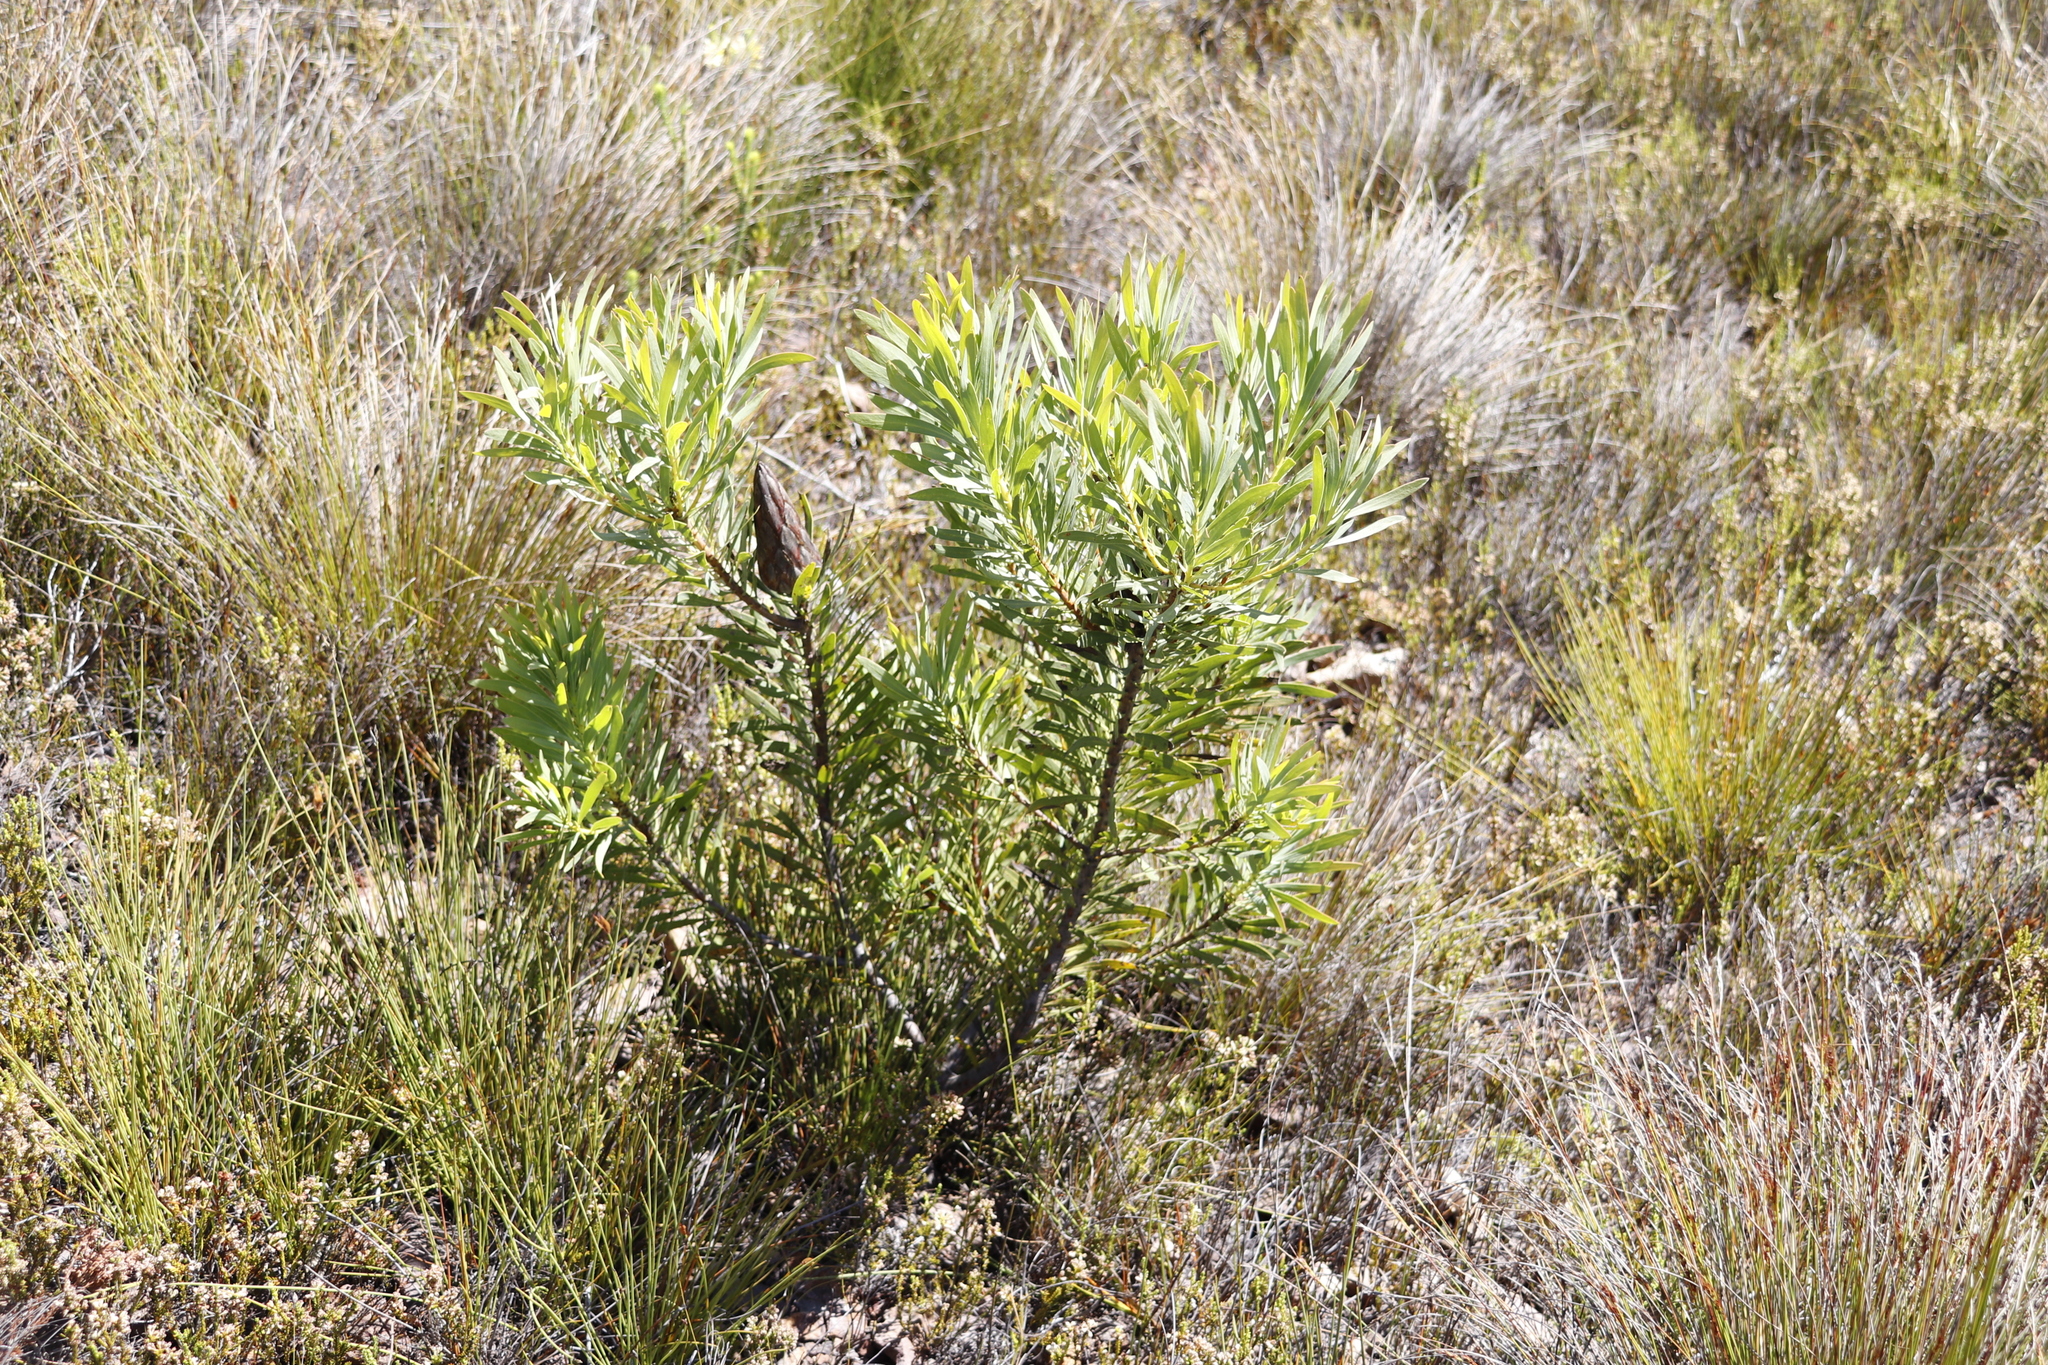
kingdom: Plantae
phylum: Tracheophyta
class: Magnoliopsida
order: Proteales
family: Proteaceae
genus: Protea
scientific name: Protea repens
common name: Sugarbush
